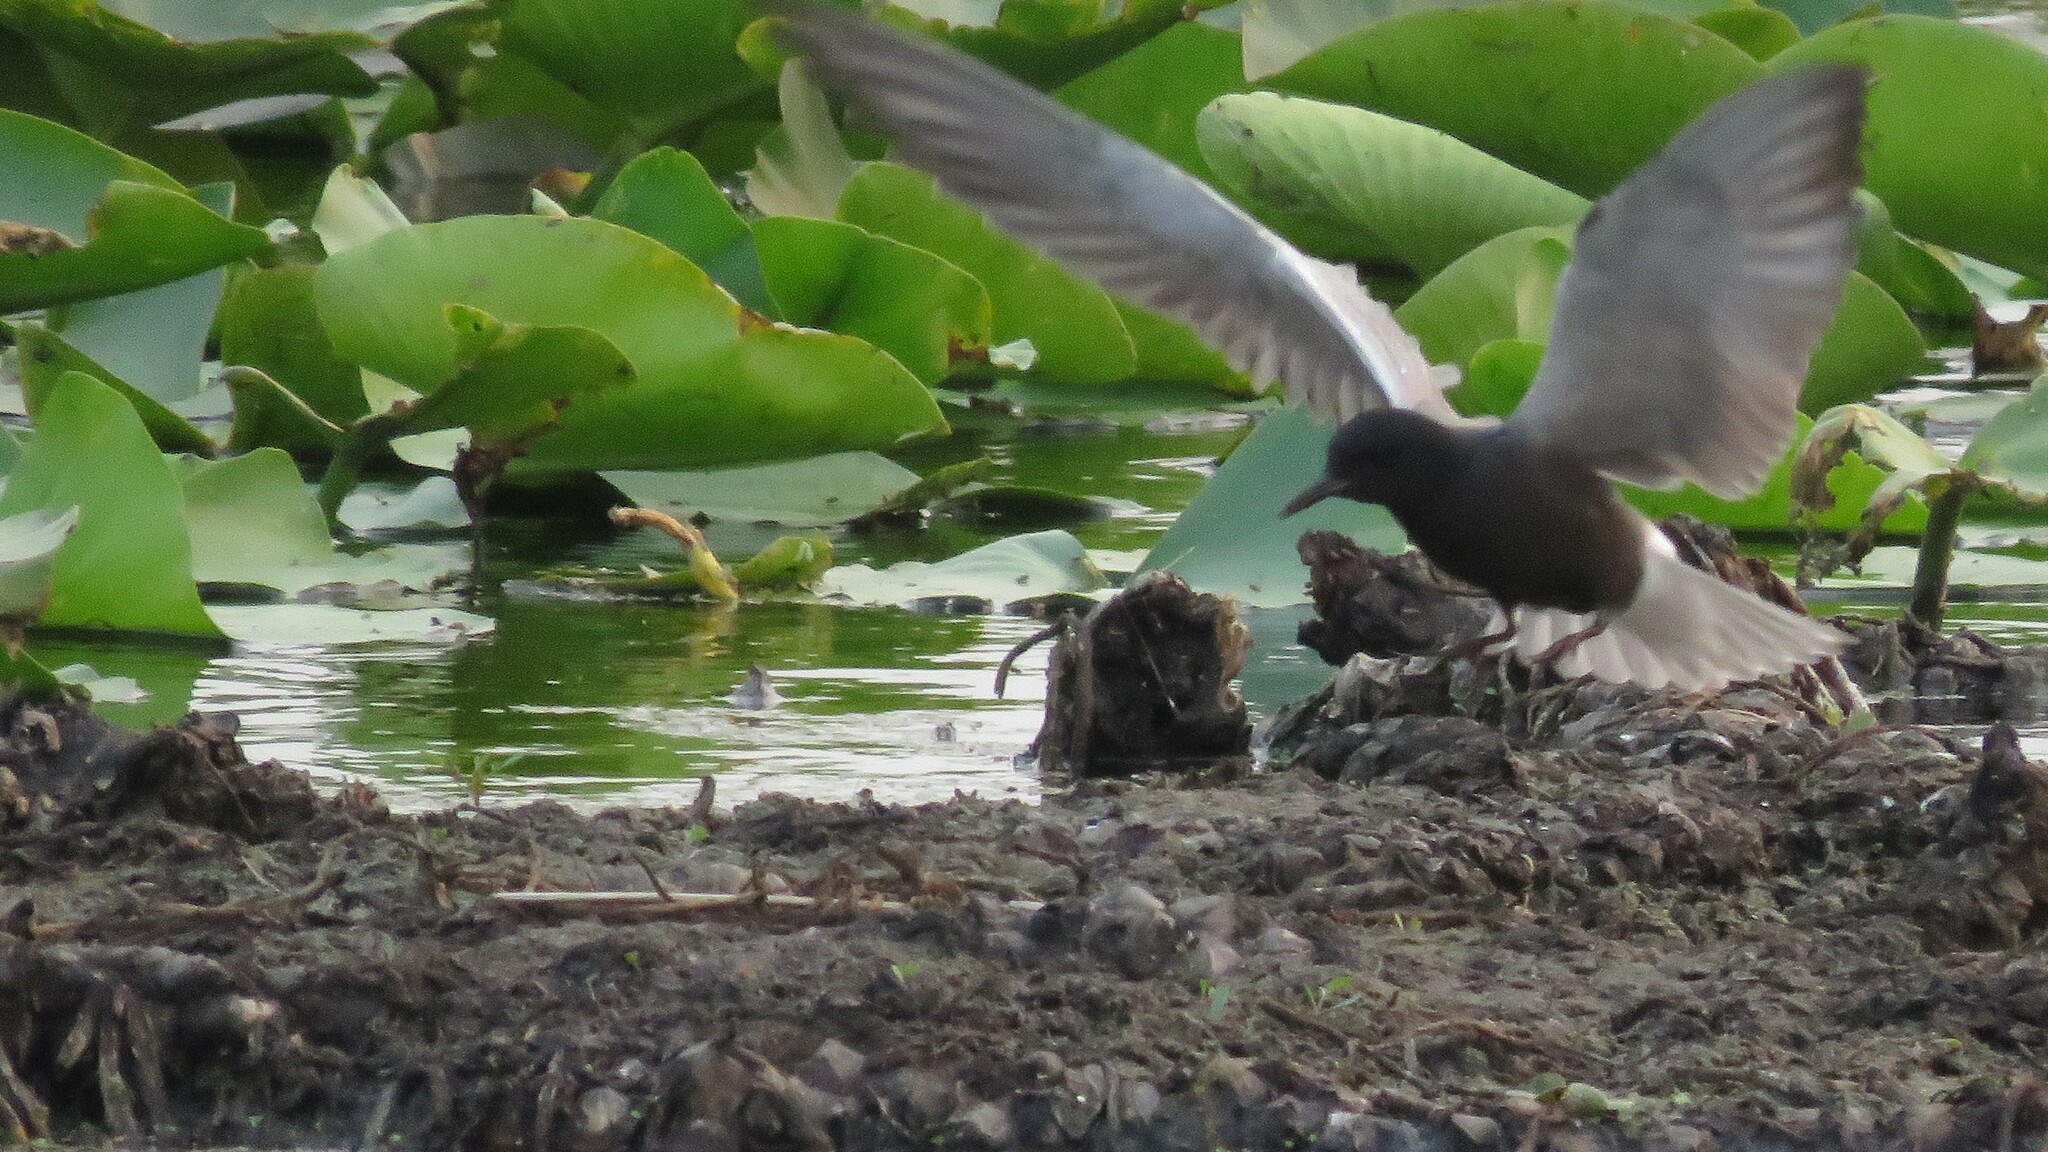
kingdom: Animalia
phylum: Chordata
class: Aves
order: Charadriiformes
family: Laridae
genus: Chlidonias
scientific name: Chlidonias niger
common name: Black tern
